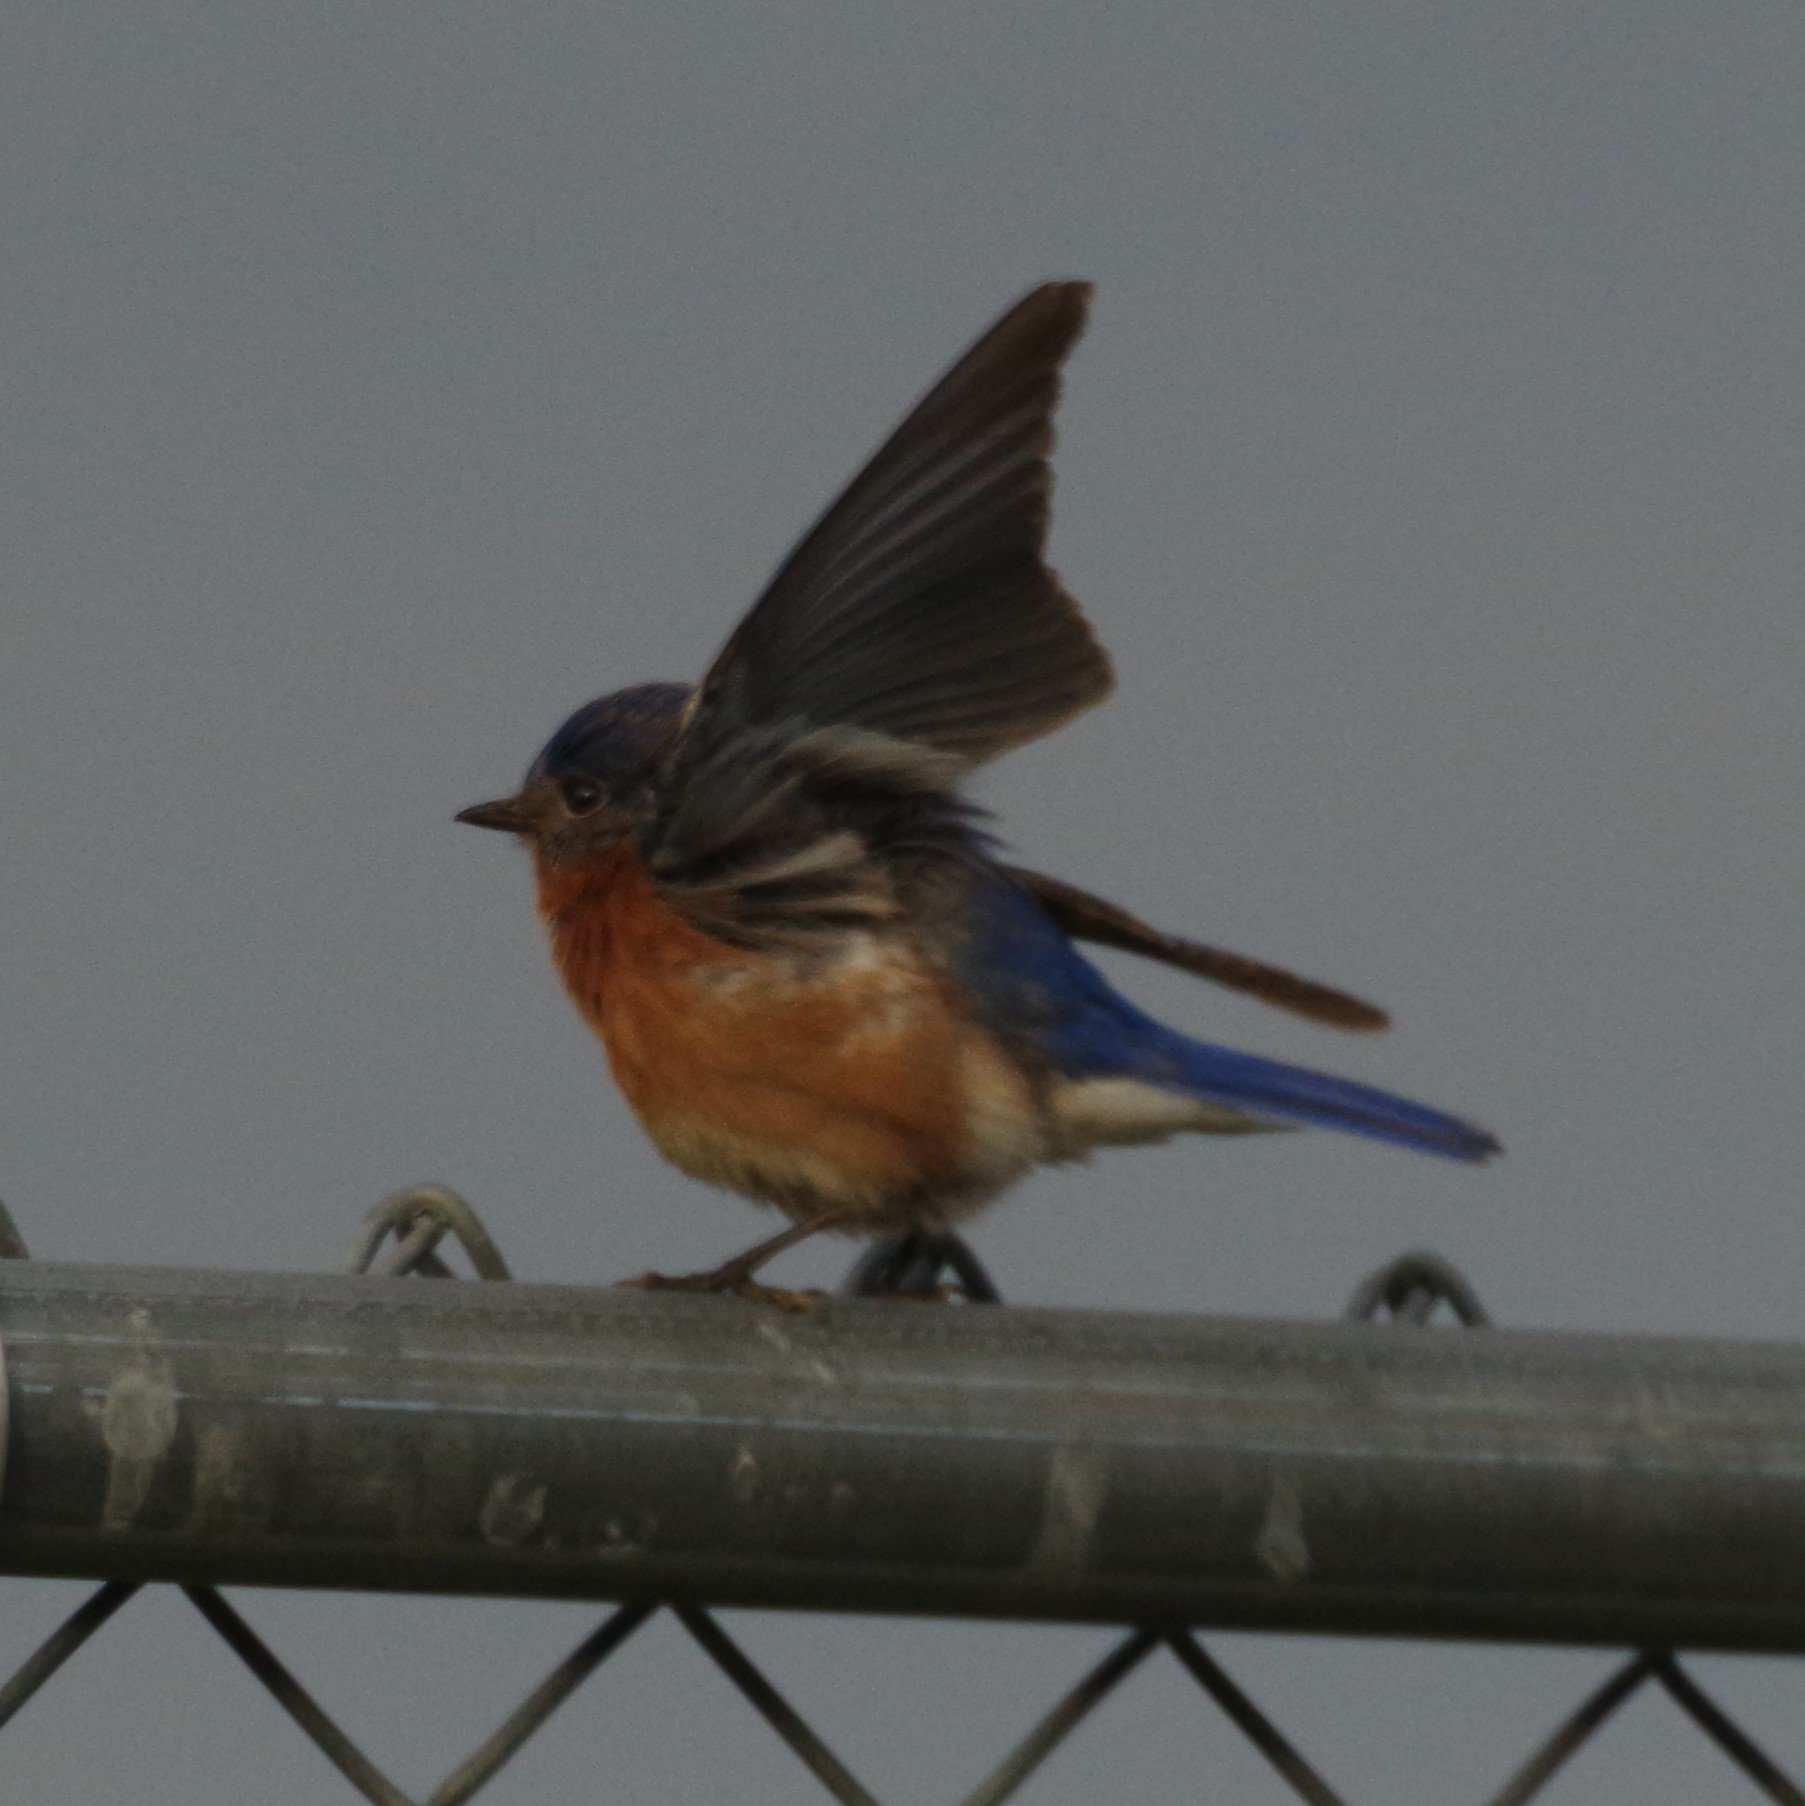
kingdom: Animalia
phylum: Chordata
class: Aves
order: Passeriformes
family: Turdidae
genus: Sialia
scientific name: Sialia sialis
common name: Eastern bluebird
